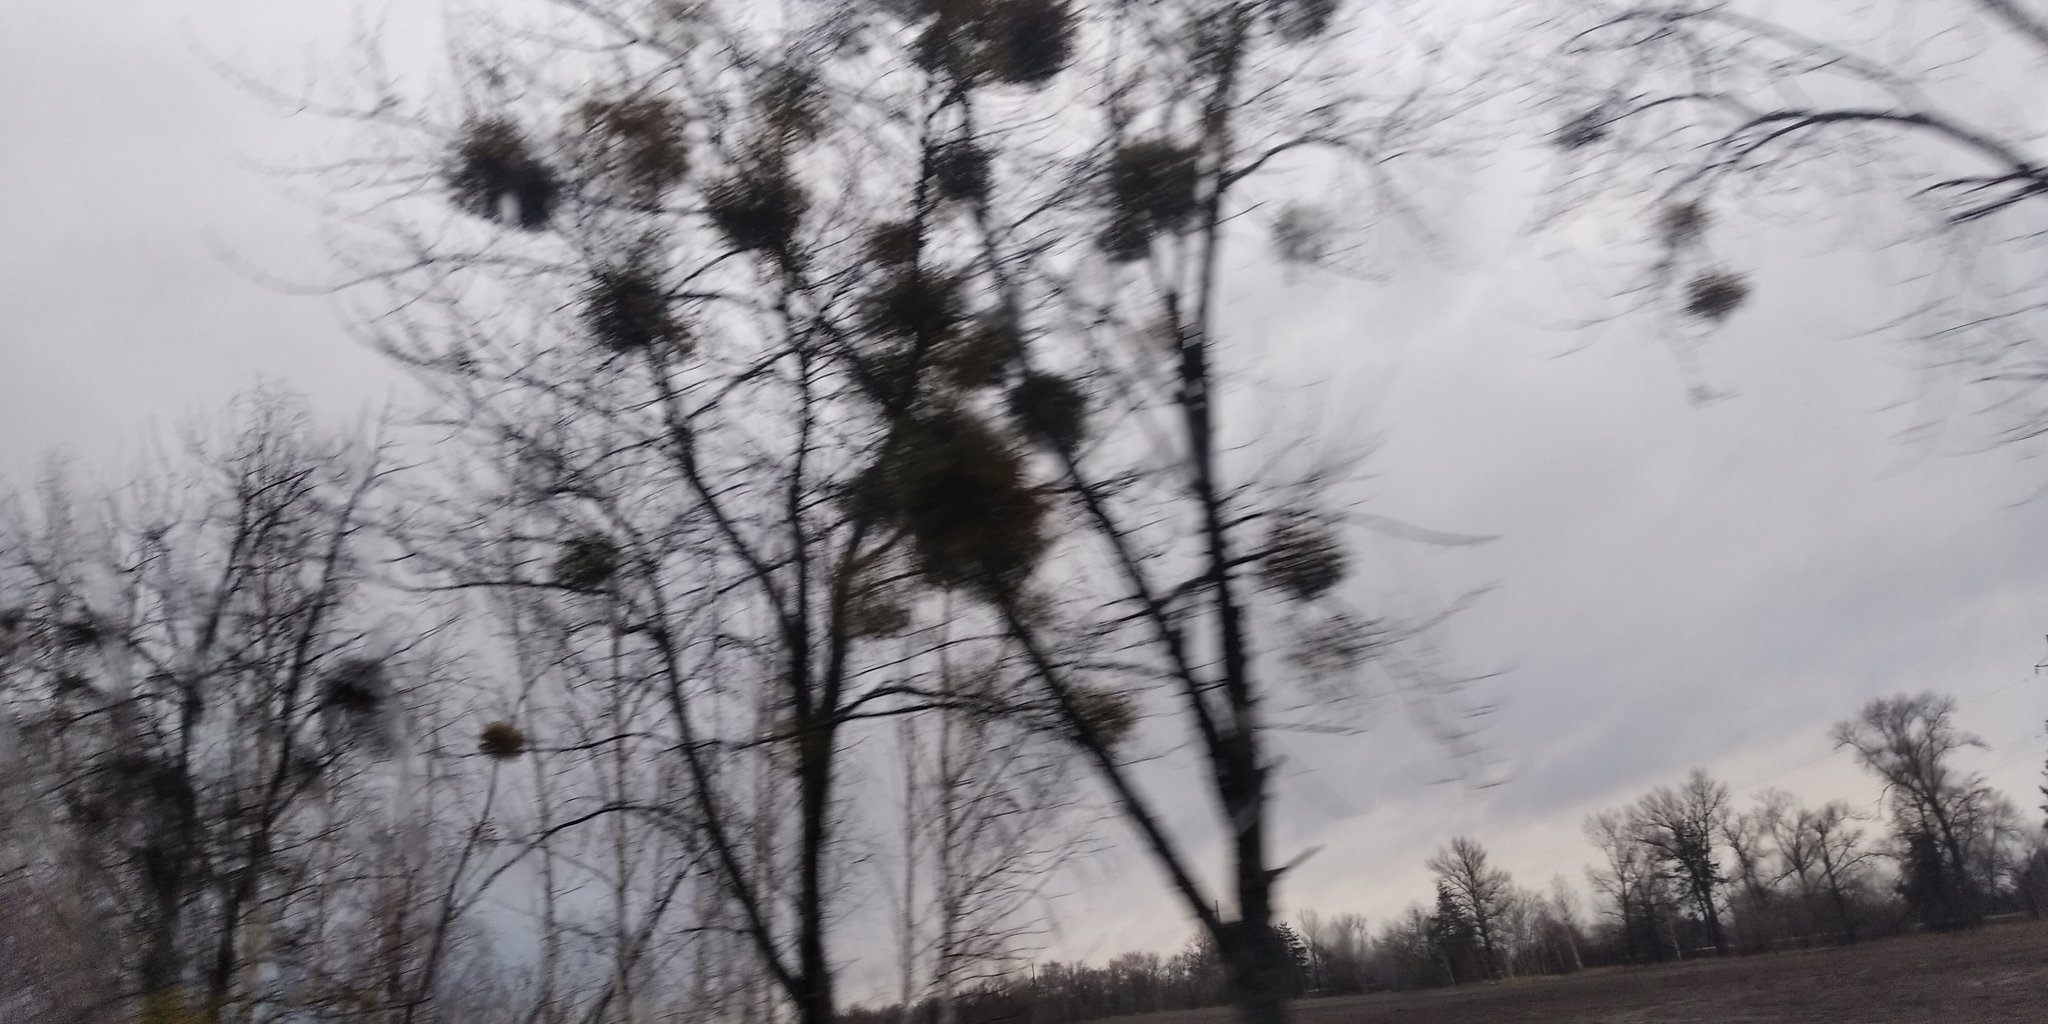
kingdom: Plantae
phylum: Tracheophyta
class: Magnoliopsida
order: Santalales
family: Viscaceae
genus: Viscum
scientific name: Viscum album
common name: Mistletoe
